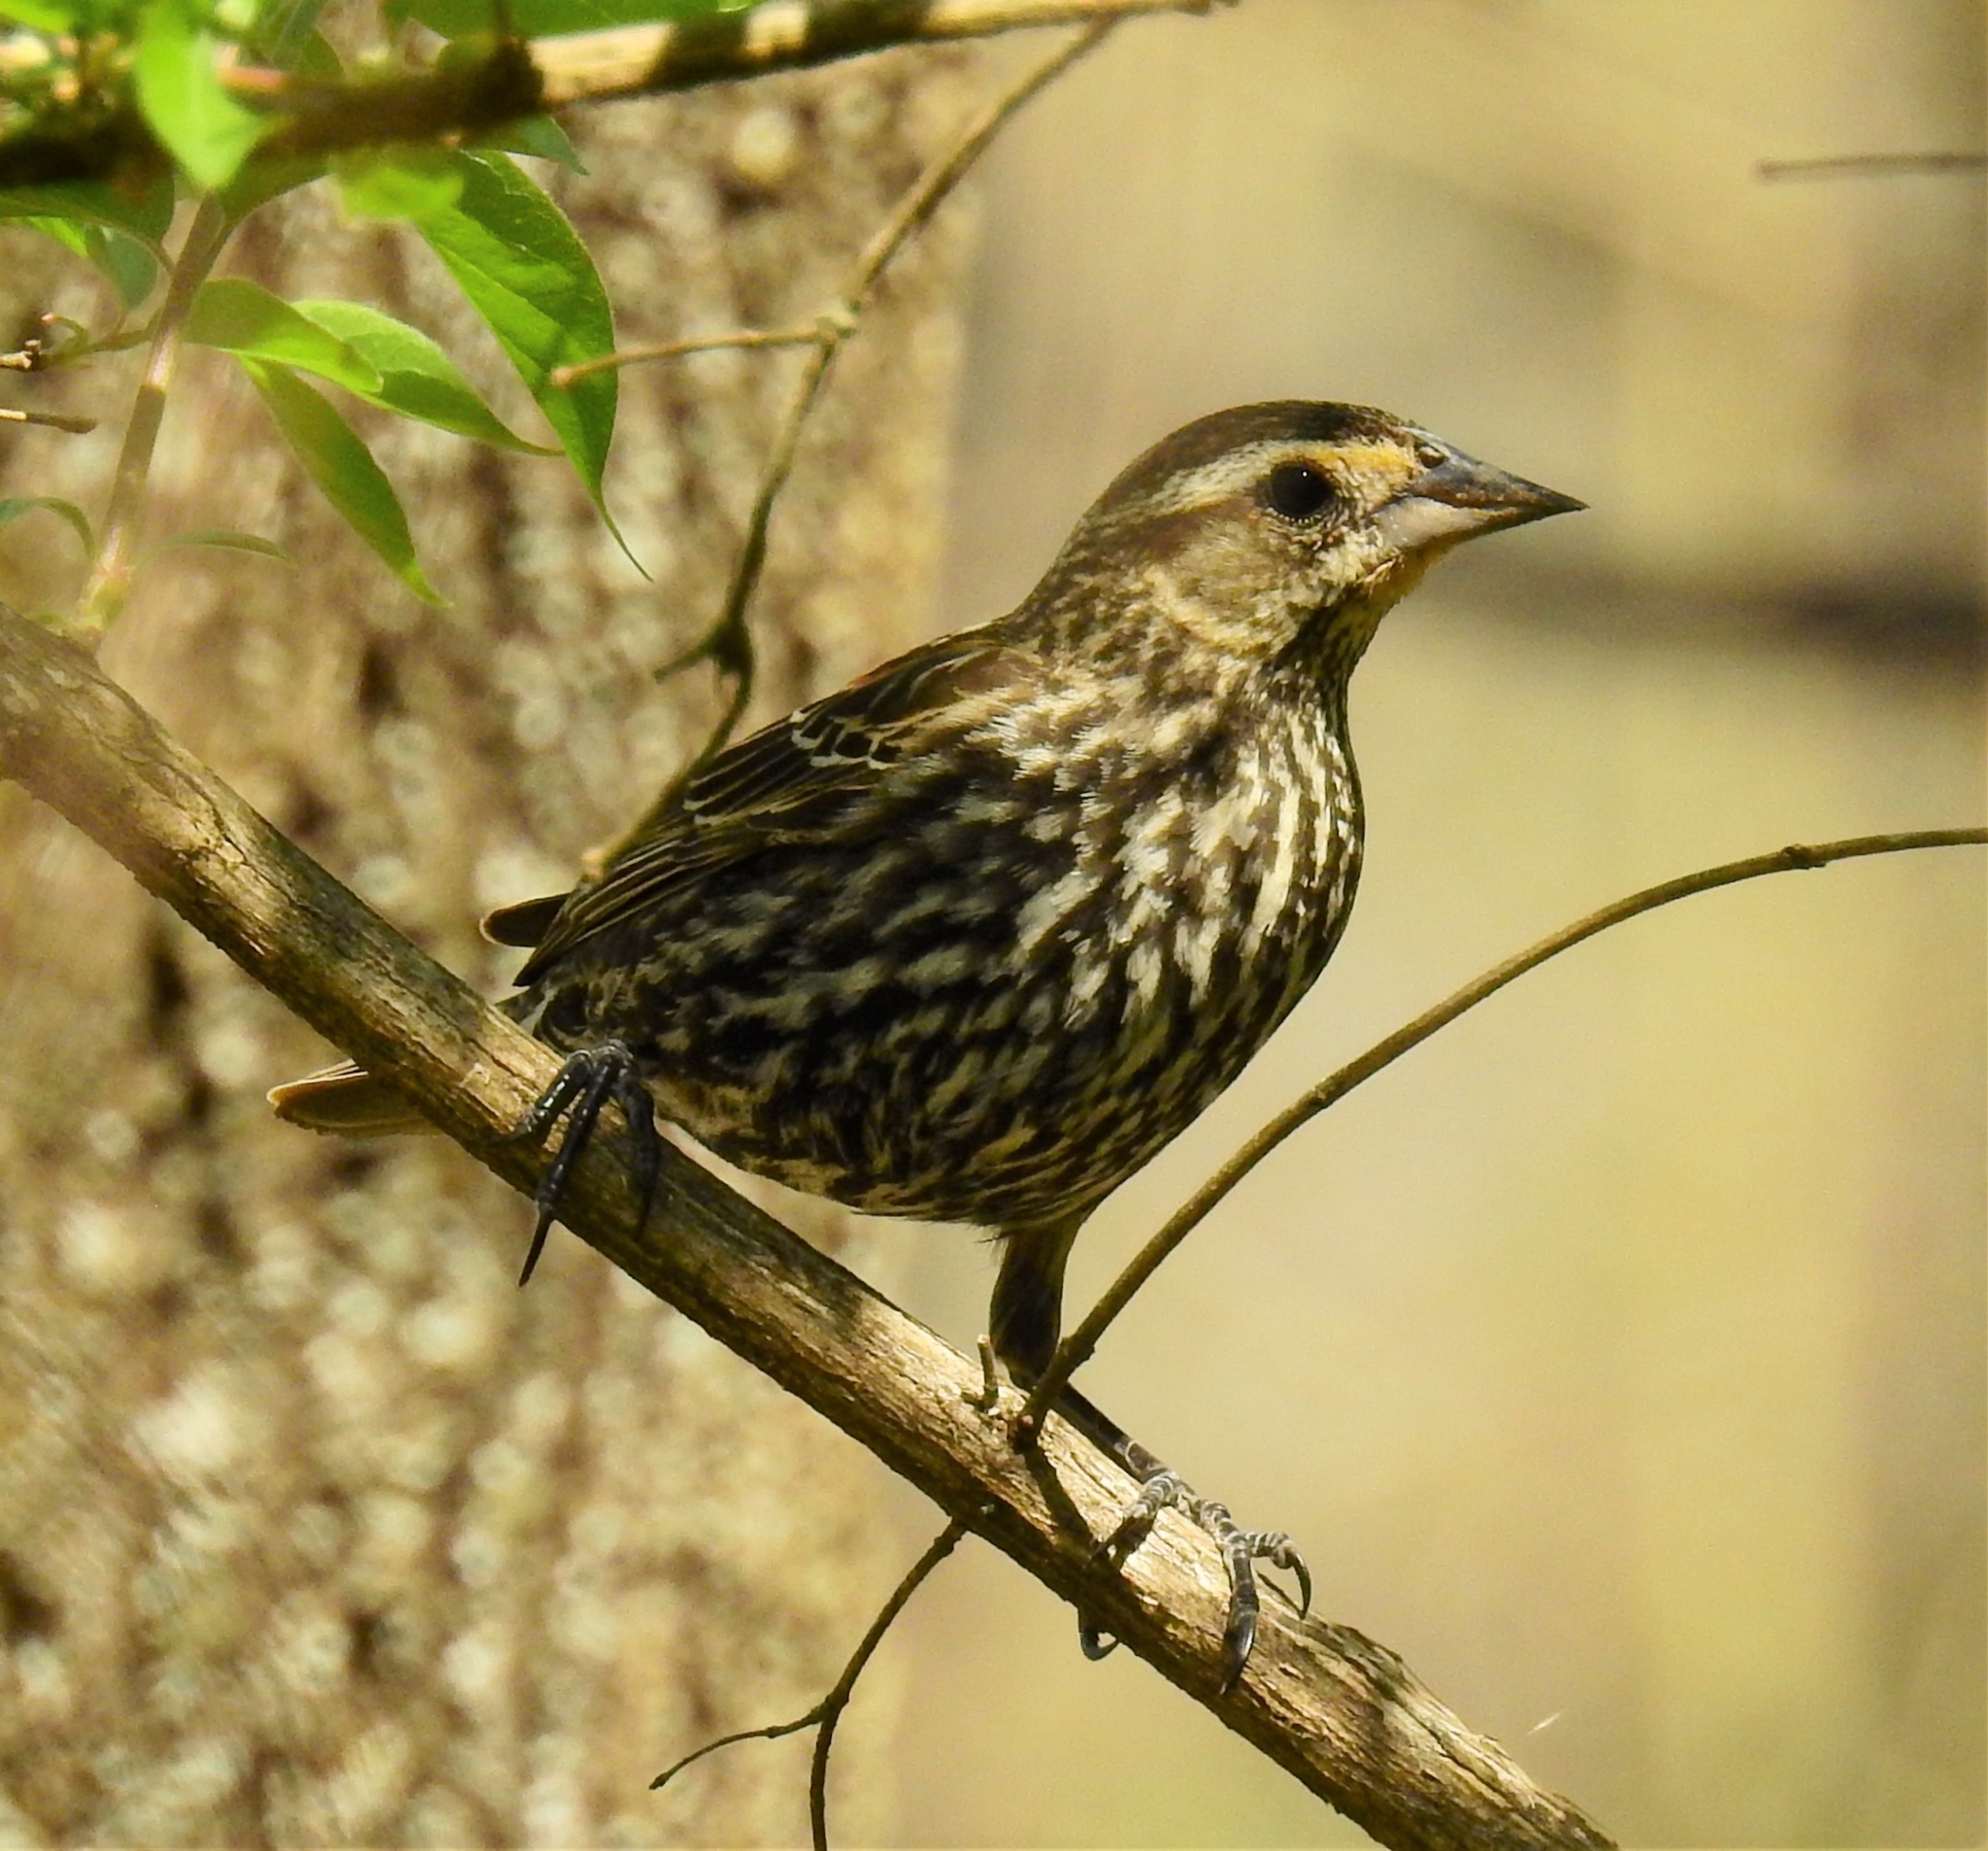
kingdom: Animalia
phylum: Chordata
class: Aves
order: Passeriformes
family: Icteridae
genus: Agelaius
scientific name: Agelaius phoeniceus
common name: Red-winged blackbird
